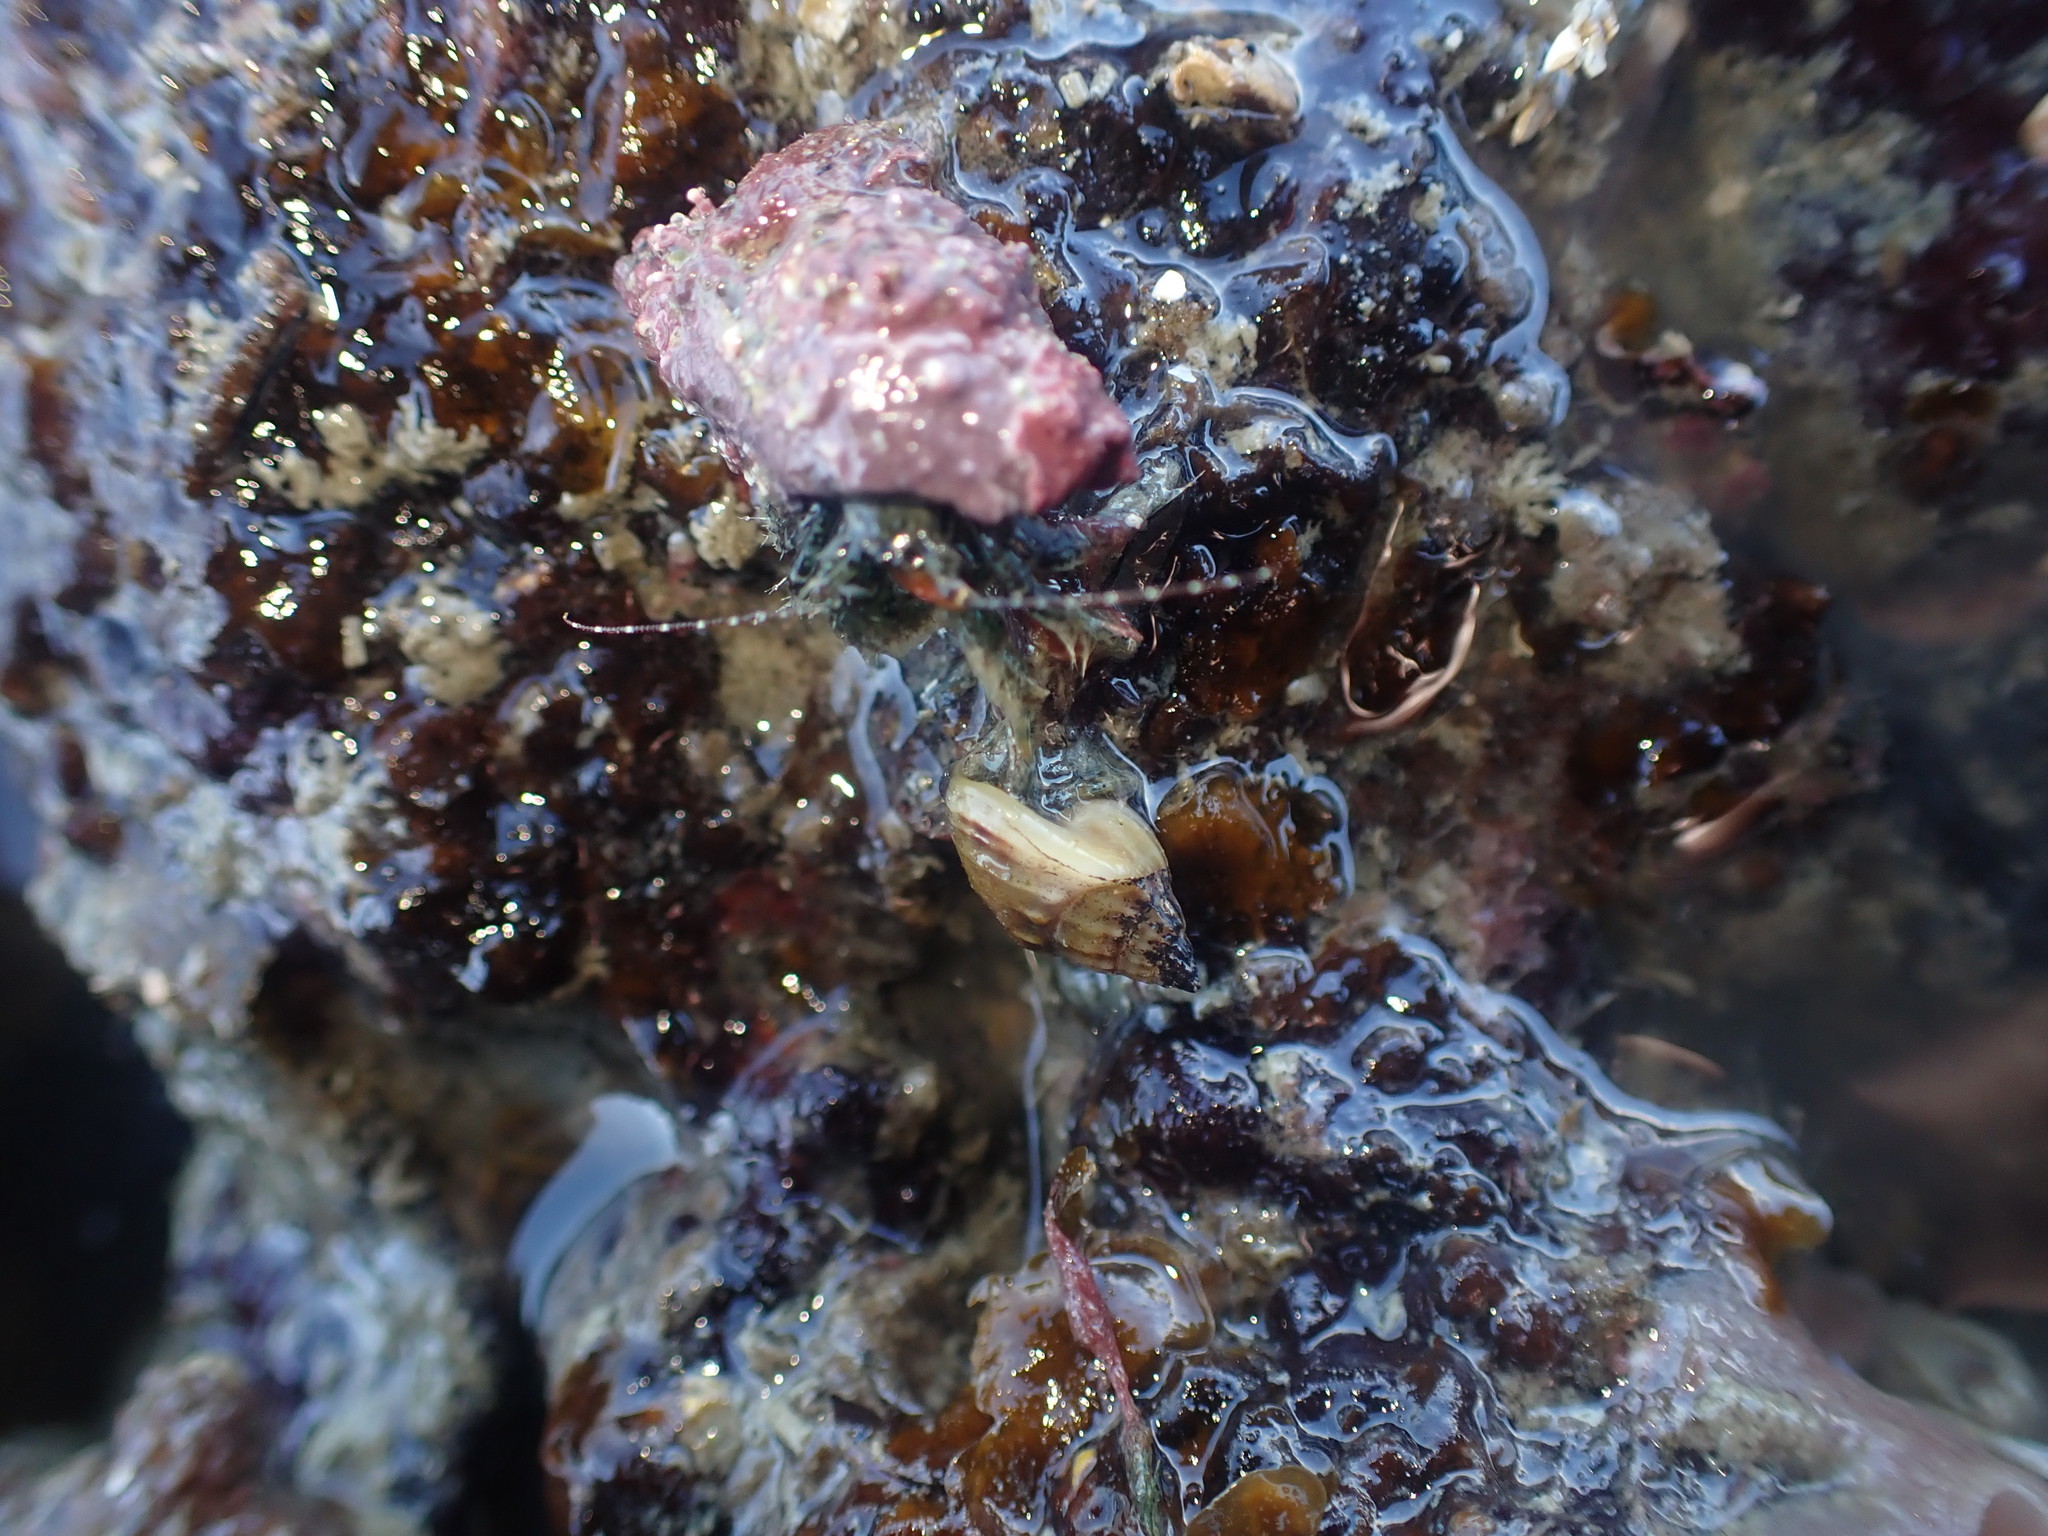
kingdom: Animalia
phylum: Arthropoda
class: Malacostraca
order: Decapoda
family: Paguridae
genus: Pagurus
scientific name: Pagurus traversi
